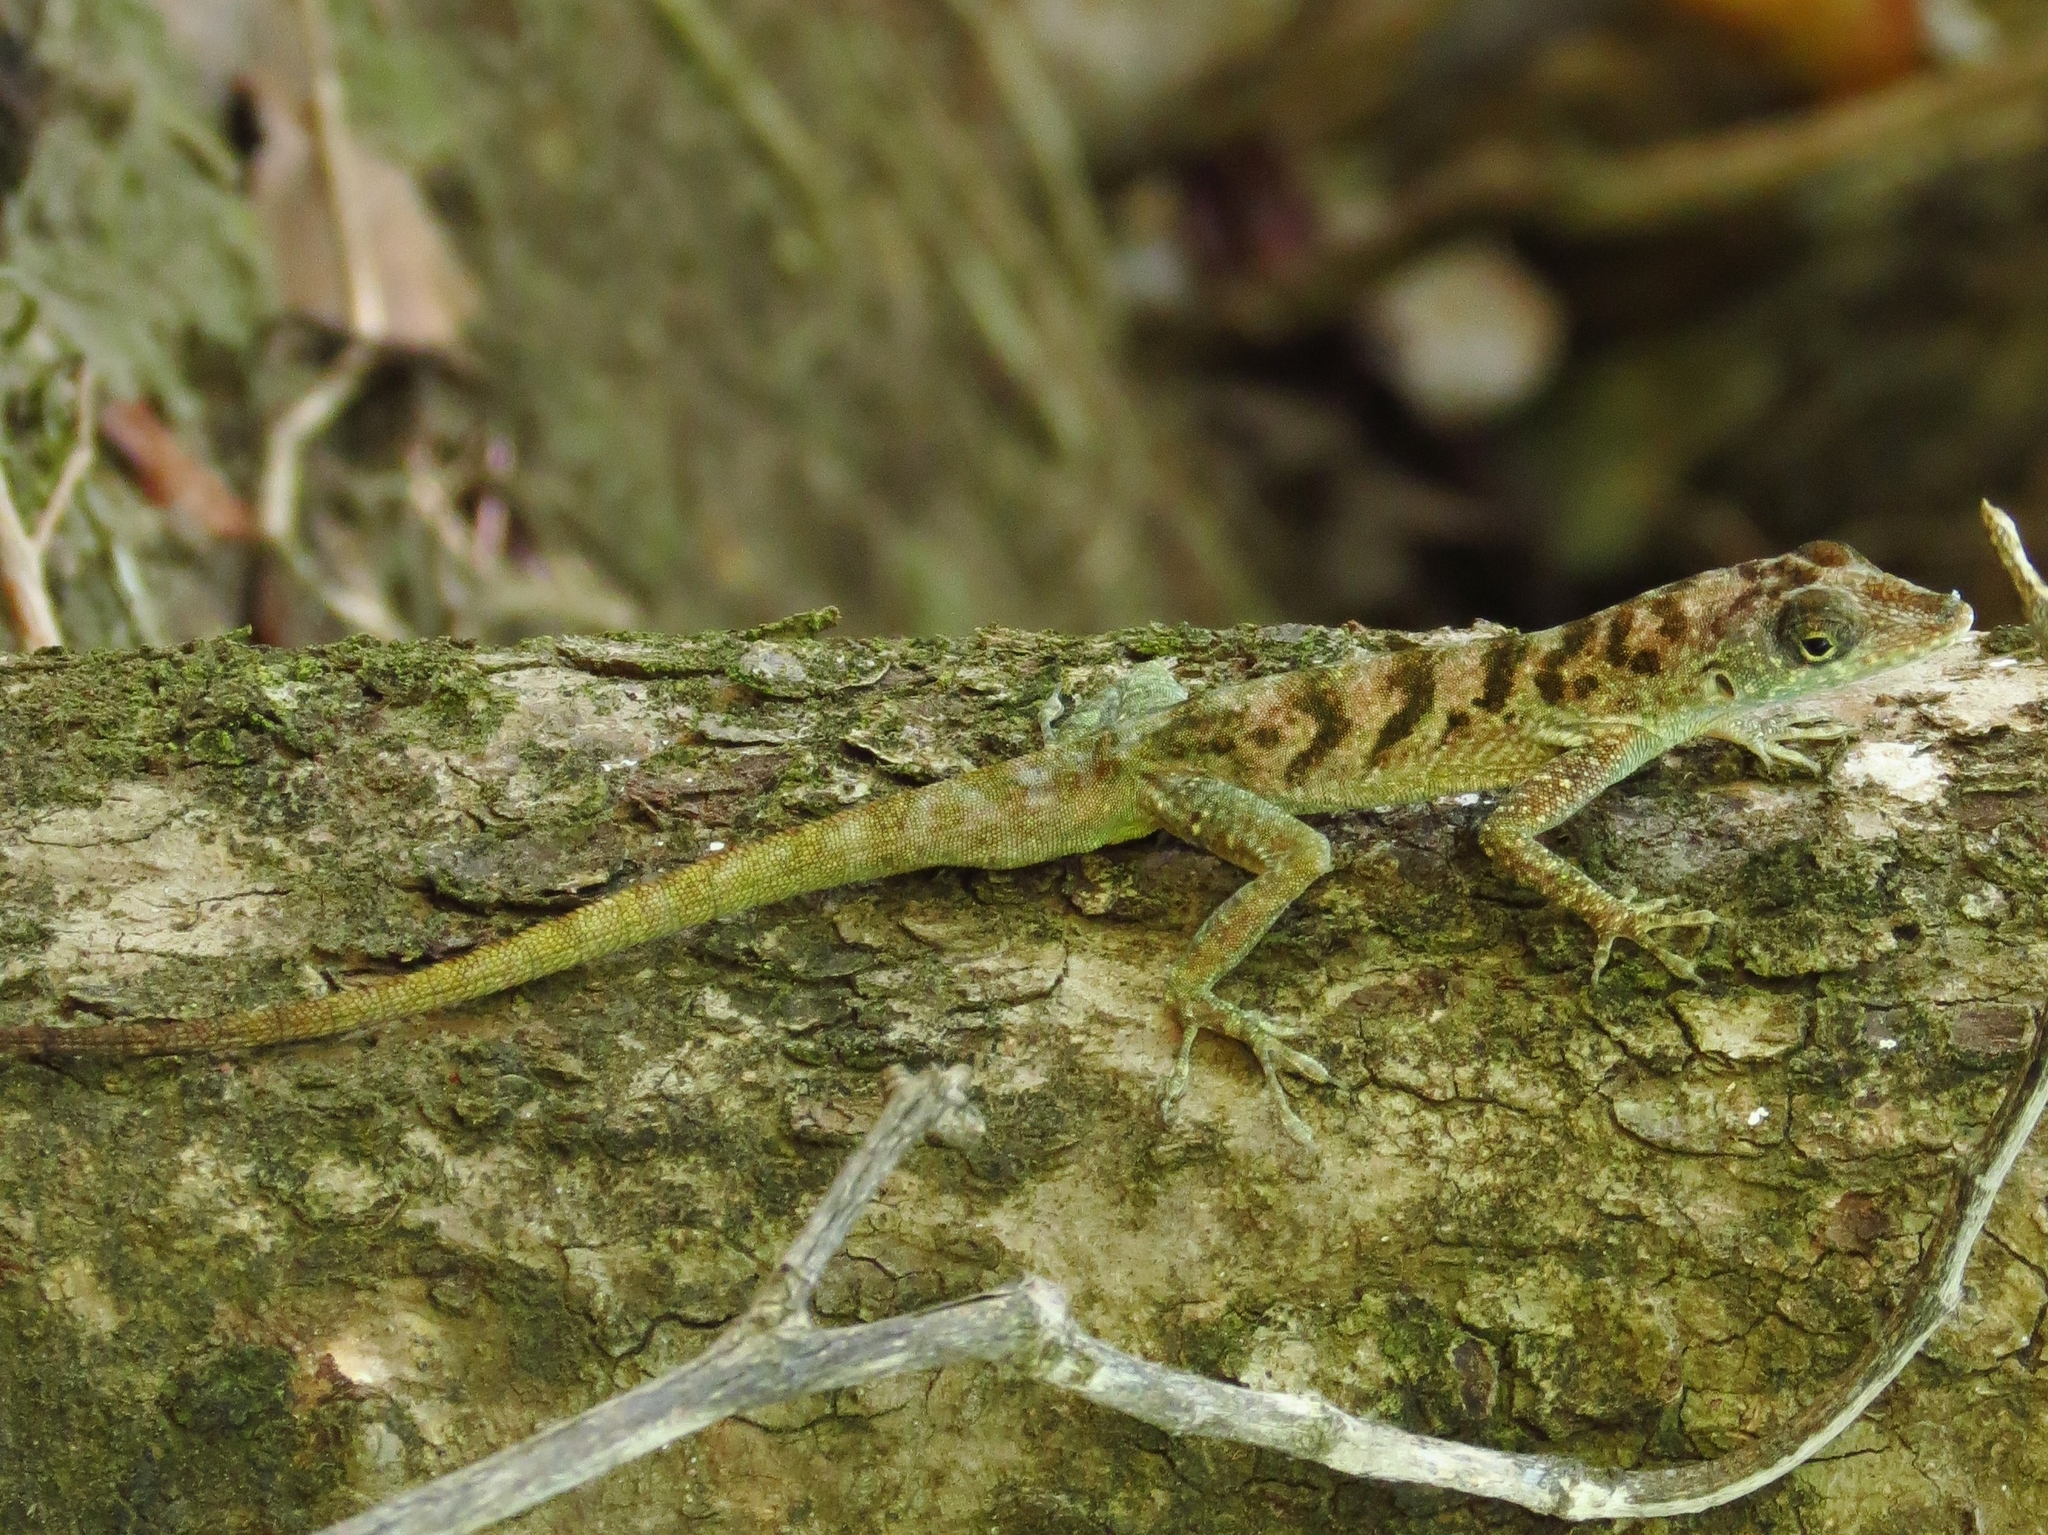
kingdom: Animalia
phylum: Chordata
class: Squamata
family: Dactyloidae
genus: Anolis
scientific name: Anolis roquet
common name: Martinique anole
